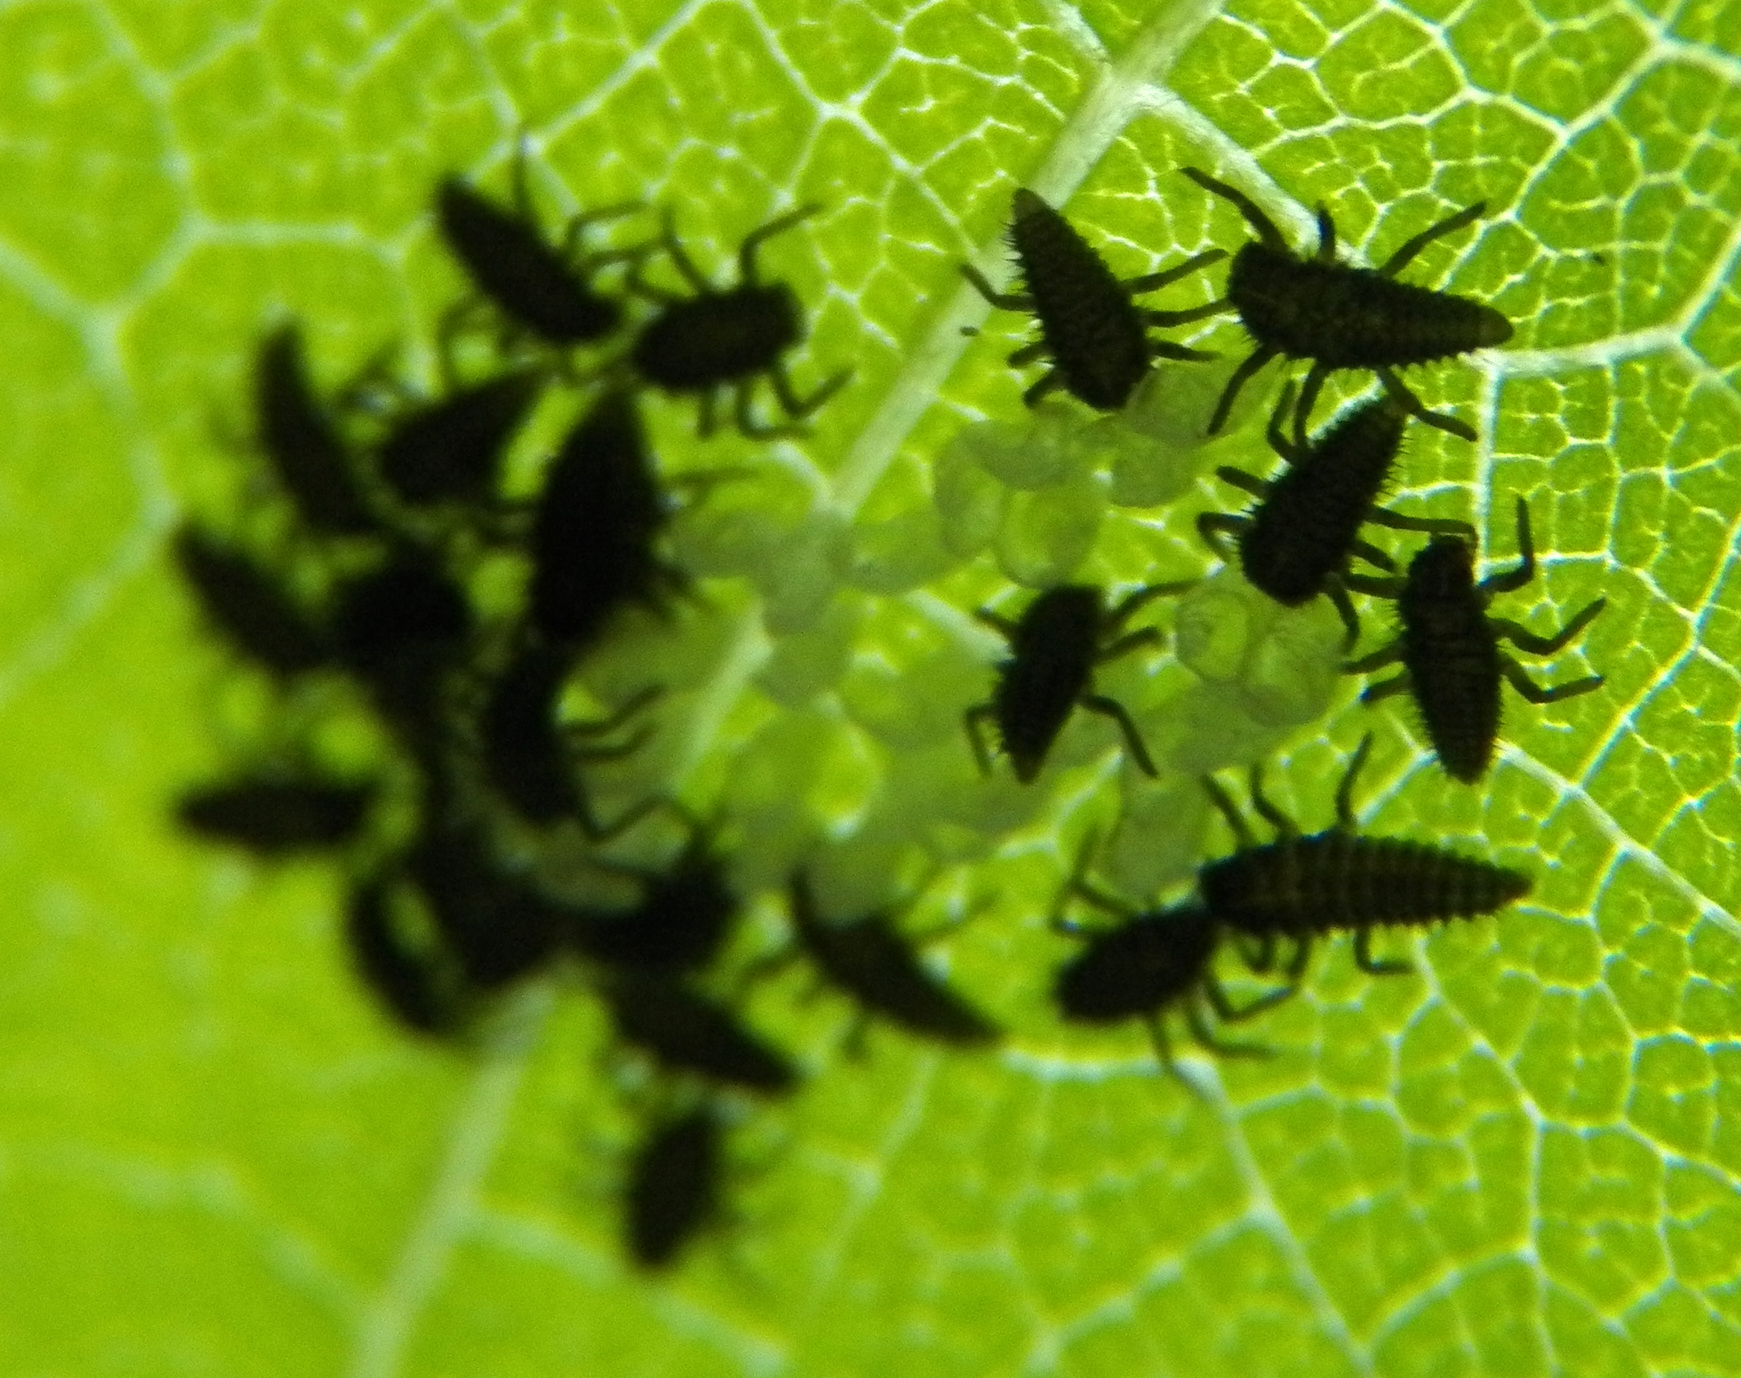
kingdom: Animalia
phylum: Arthropoda
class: Insecta
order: Coleoptera
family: Coccinellidae
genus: Harmonia
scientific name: Harmonia axyridis
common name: Harlequin ladybird
